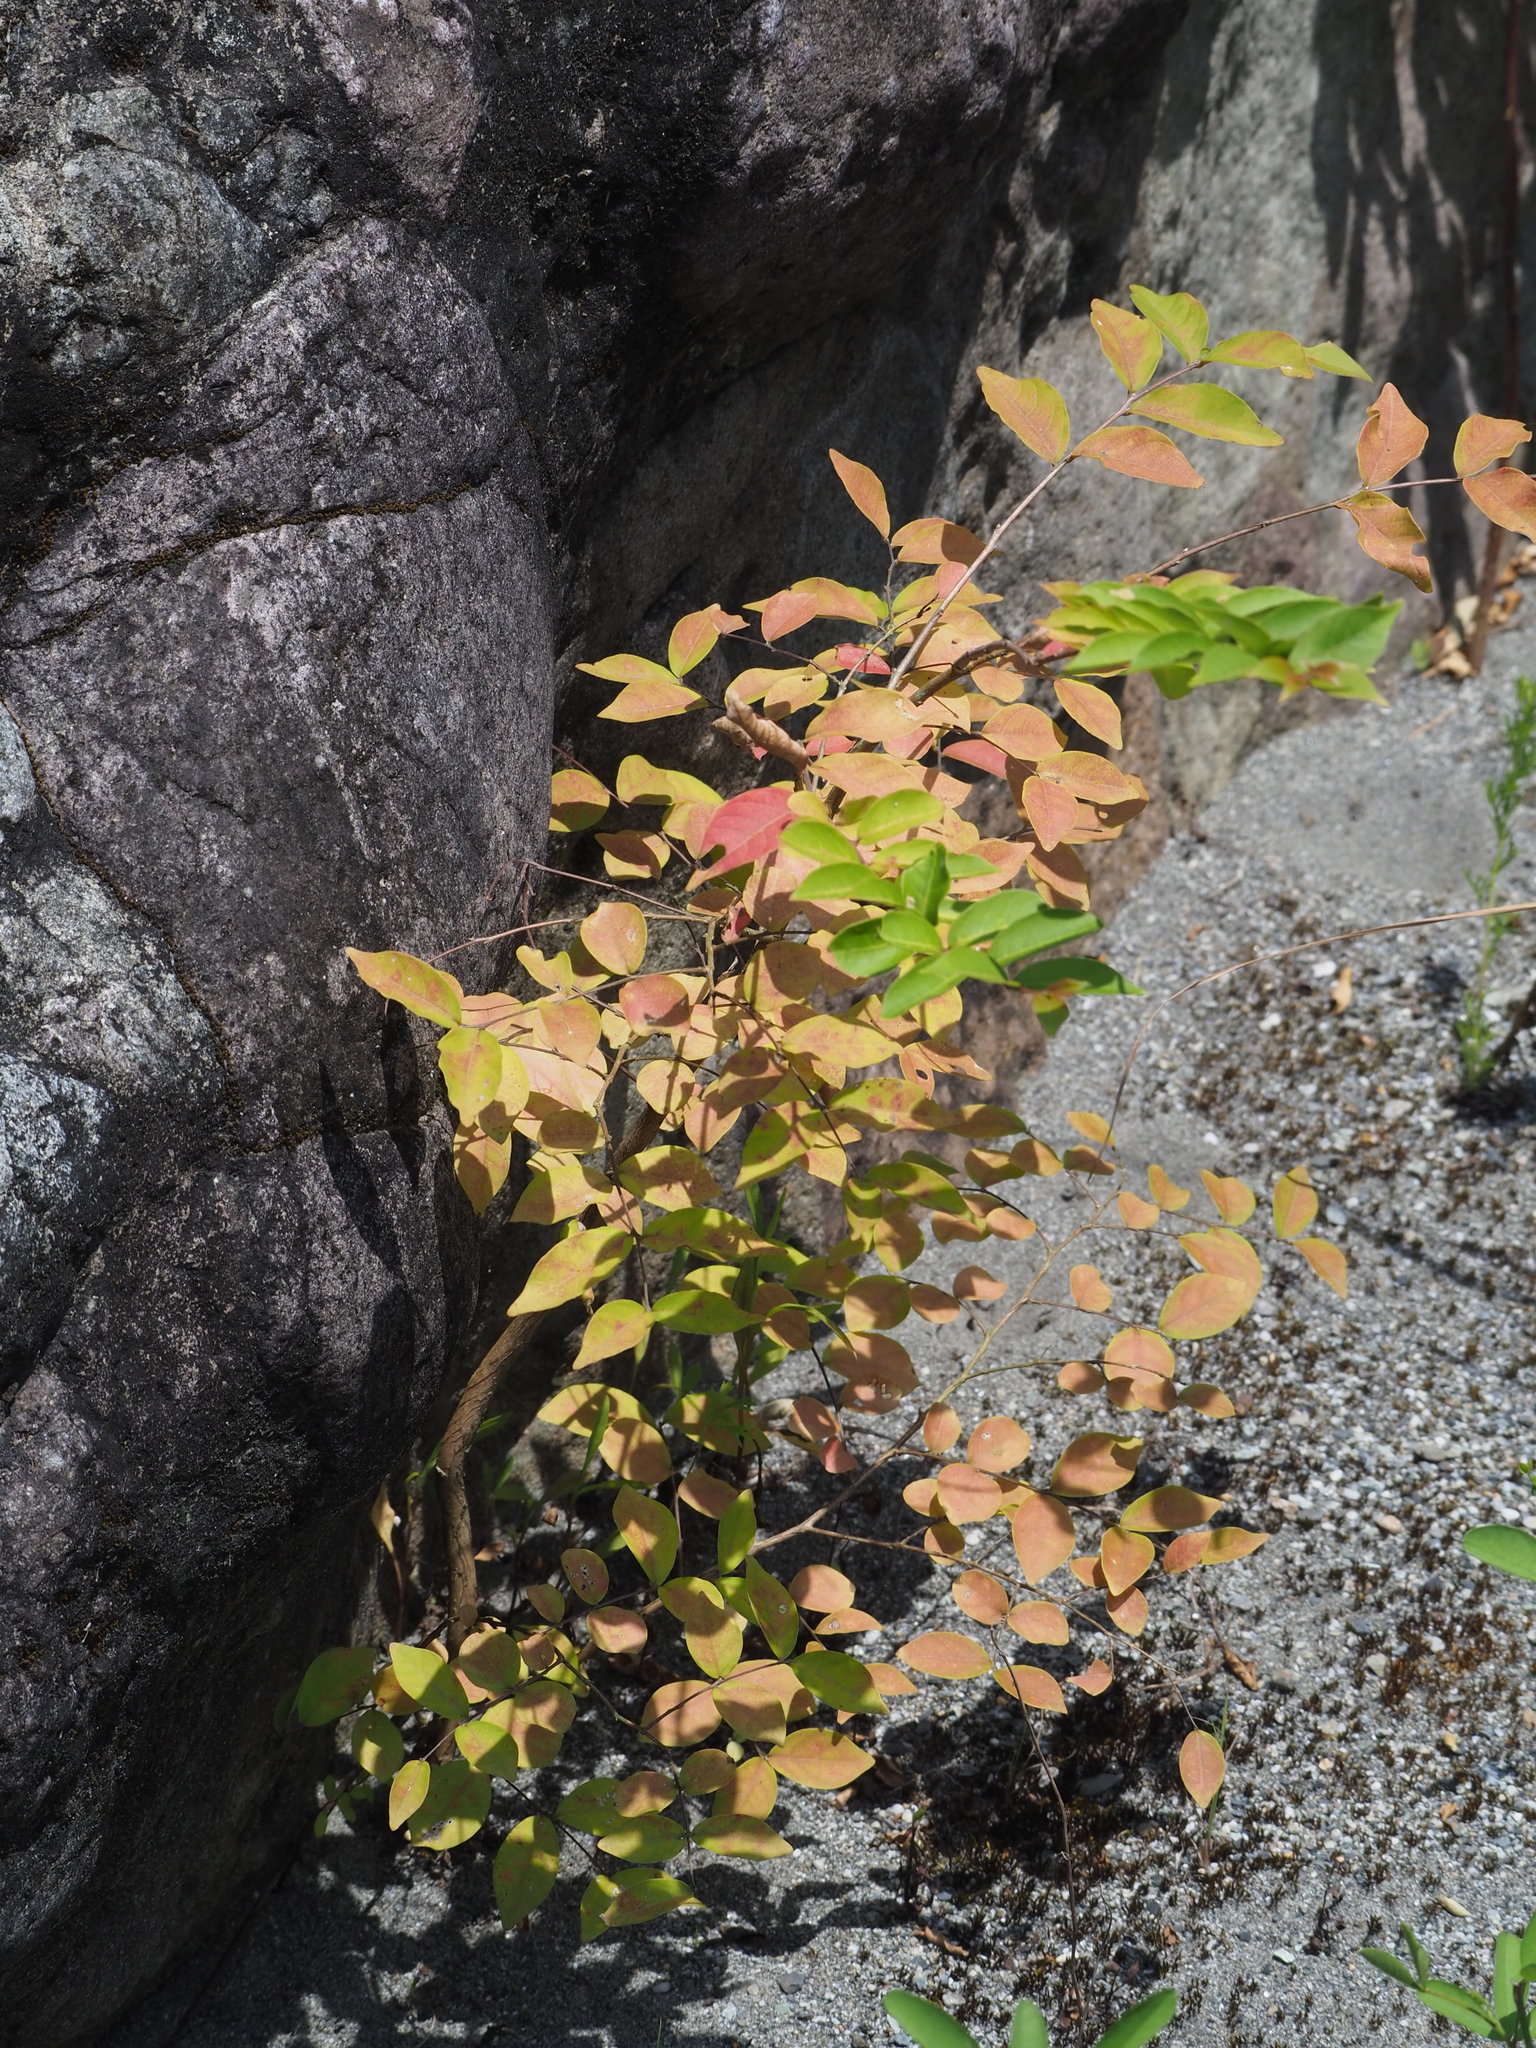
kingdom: Plantae
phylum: Tracheophyta
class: Magnoliopsida
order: Myrtales
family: Lythraceae
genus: Lagerstroemia
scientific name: Lagerstroemia subcostata
